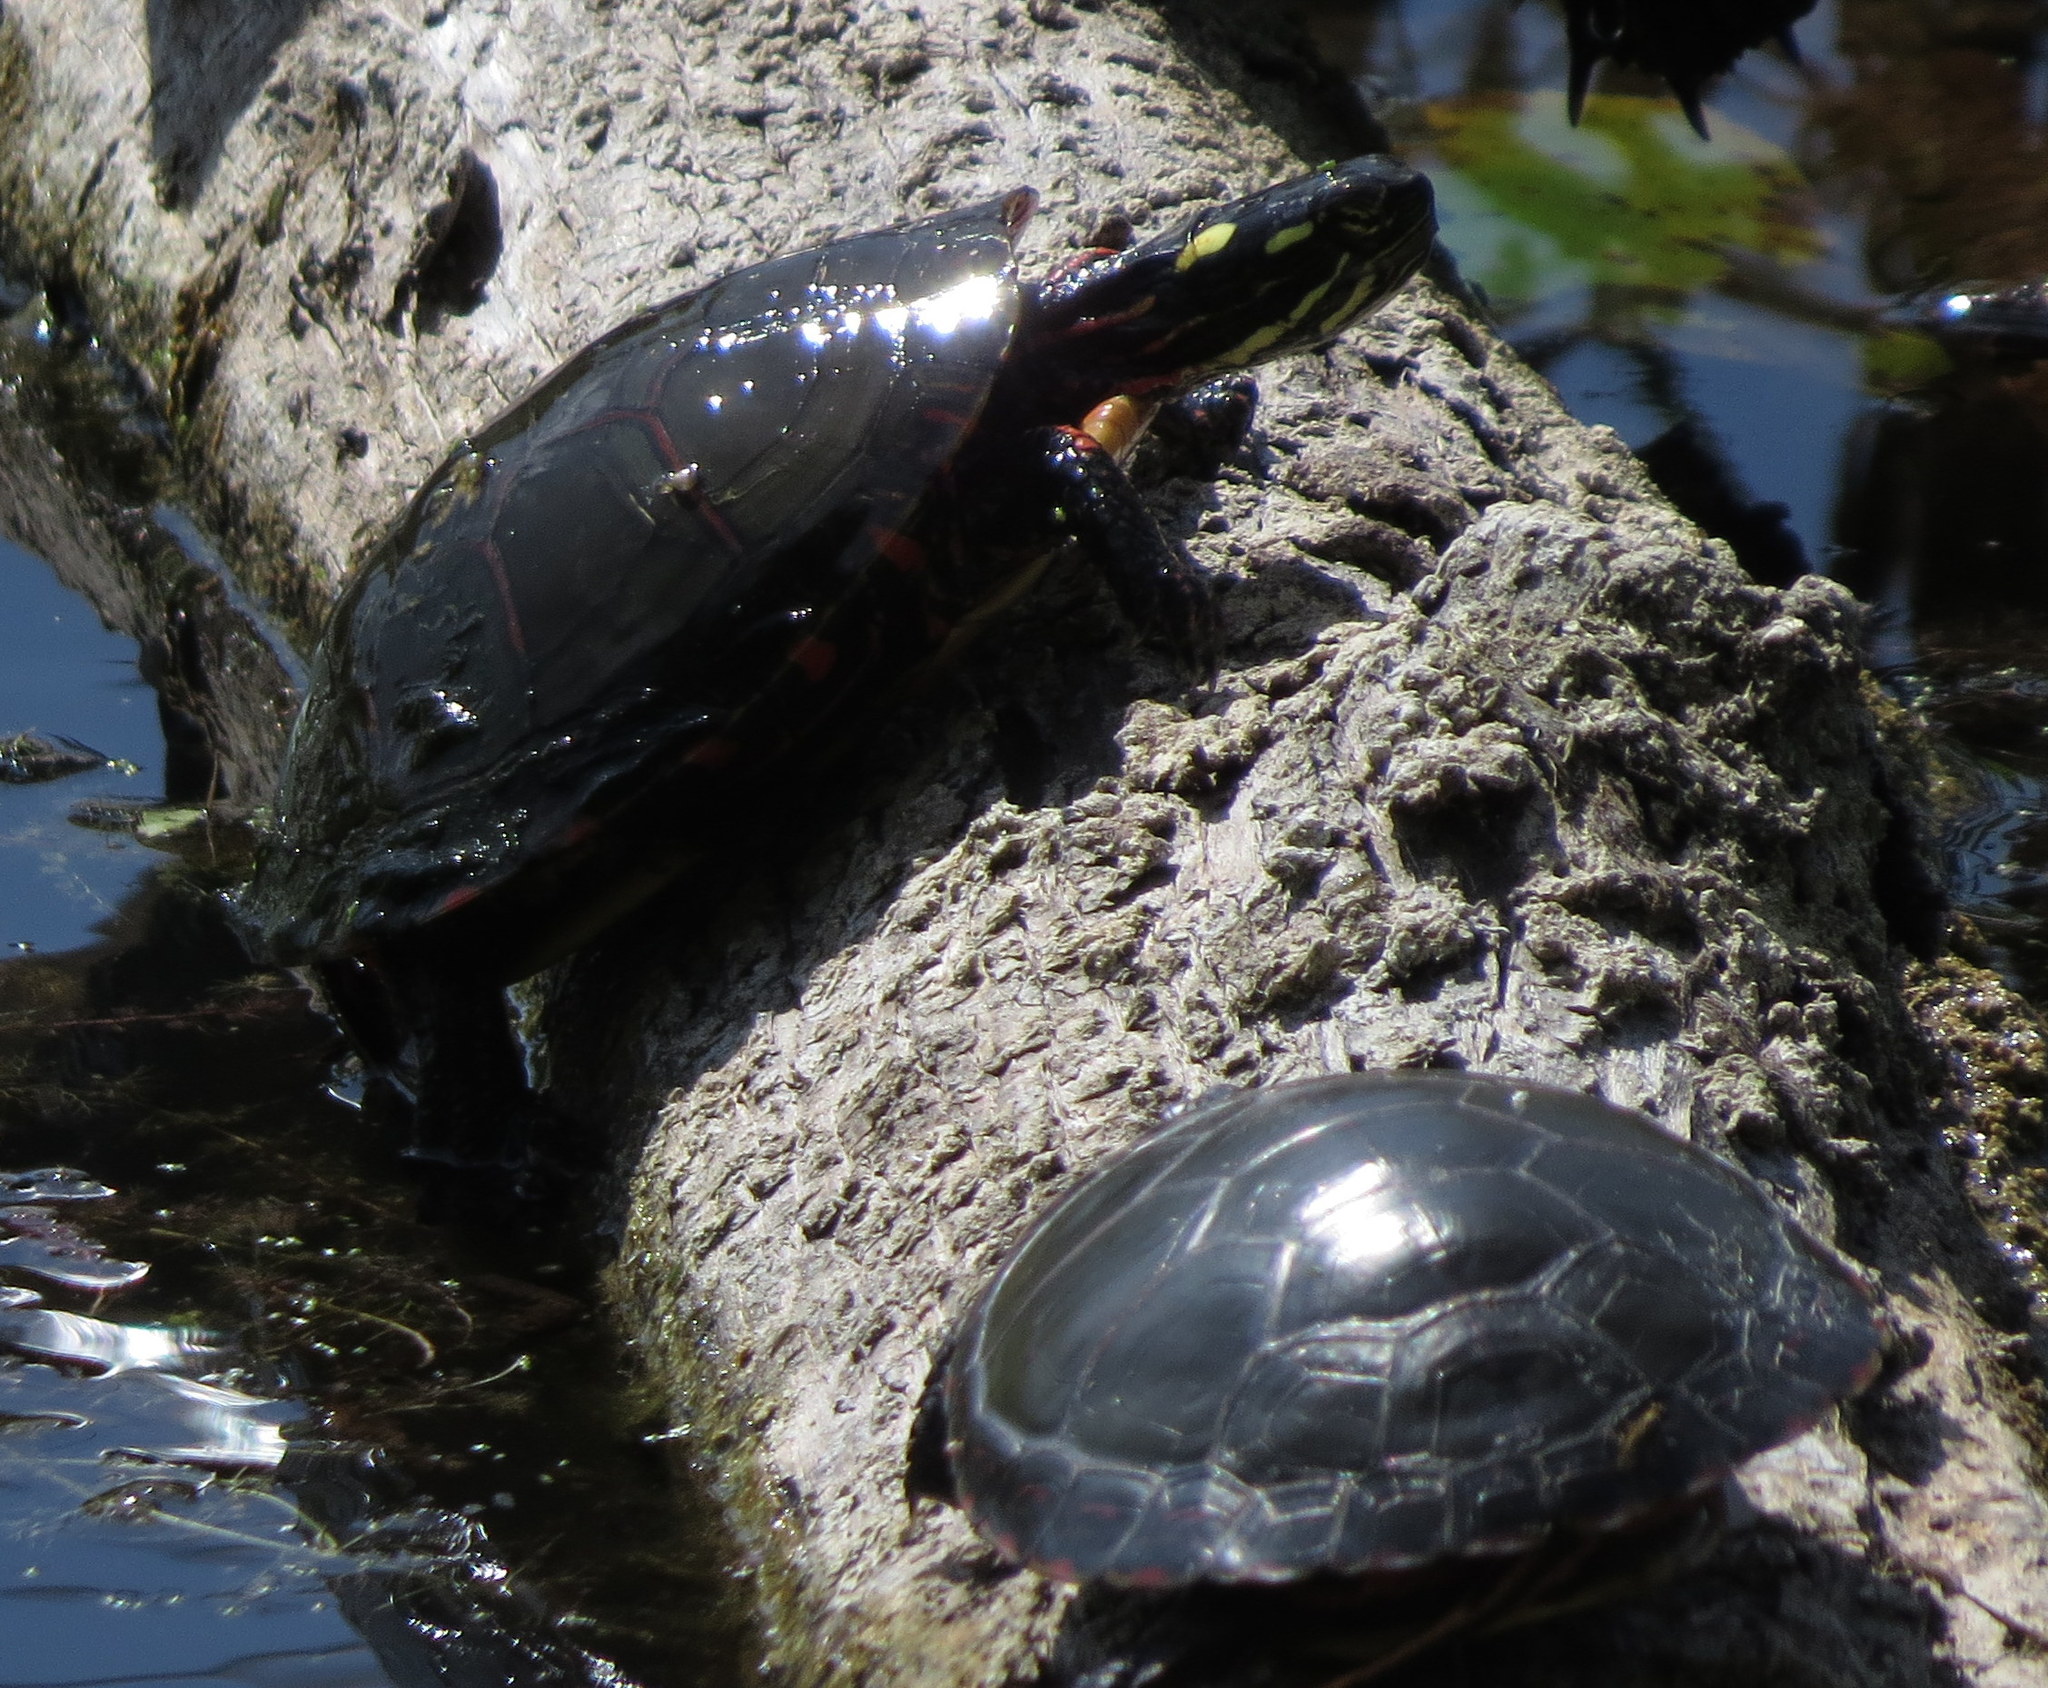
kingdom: Animalia
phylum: Chordata
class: Testudines
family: Emydidae
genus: Chrysemys
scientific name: Chrysemys picta
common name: Painted turtle
